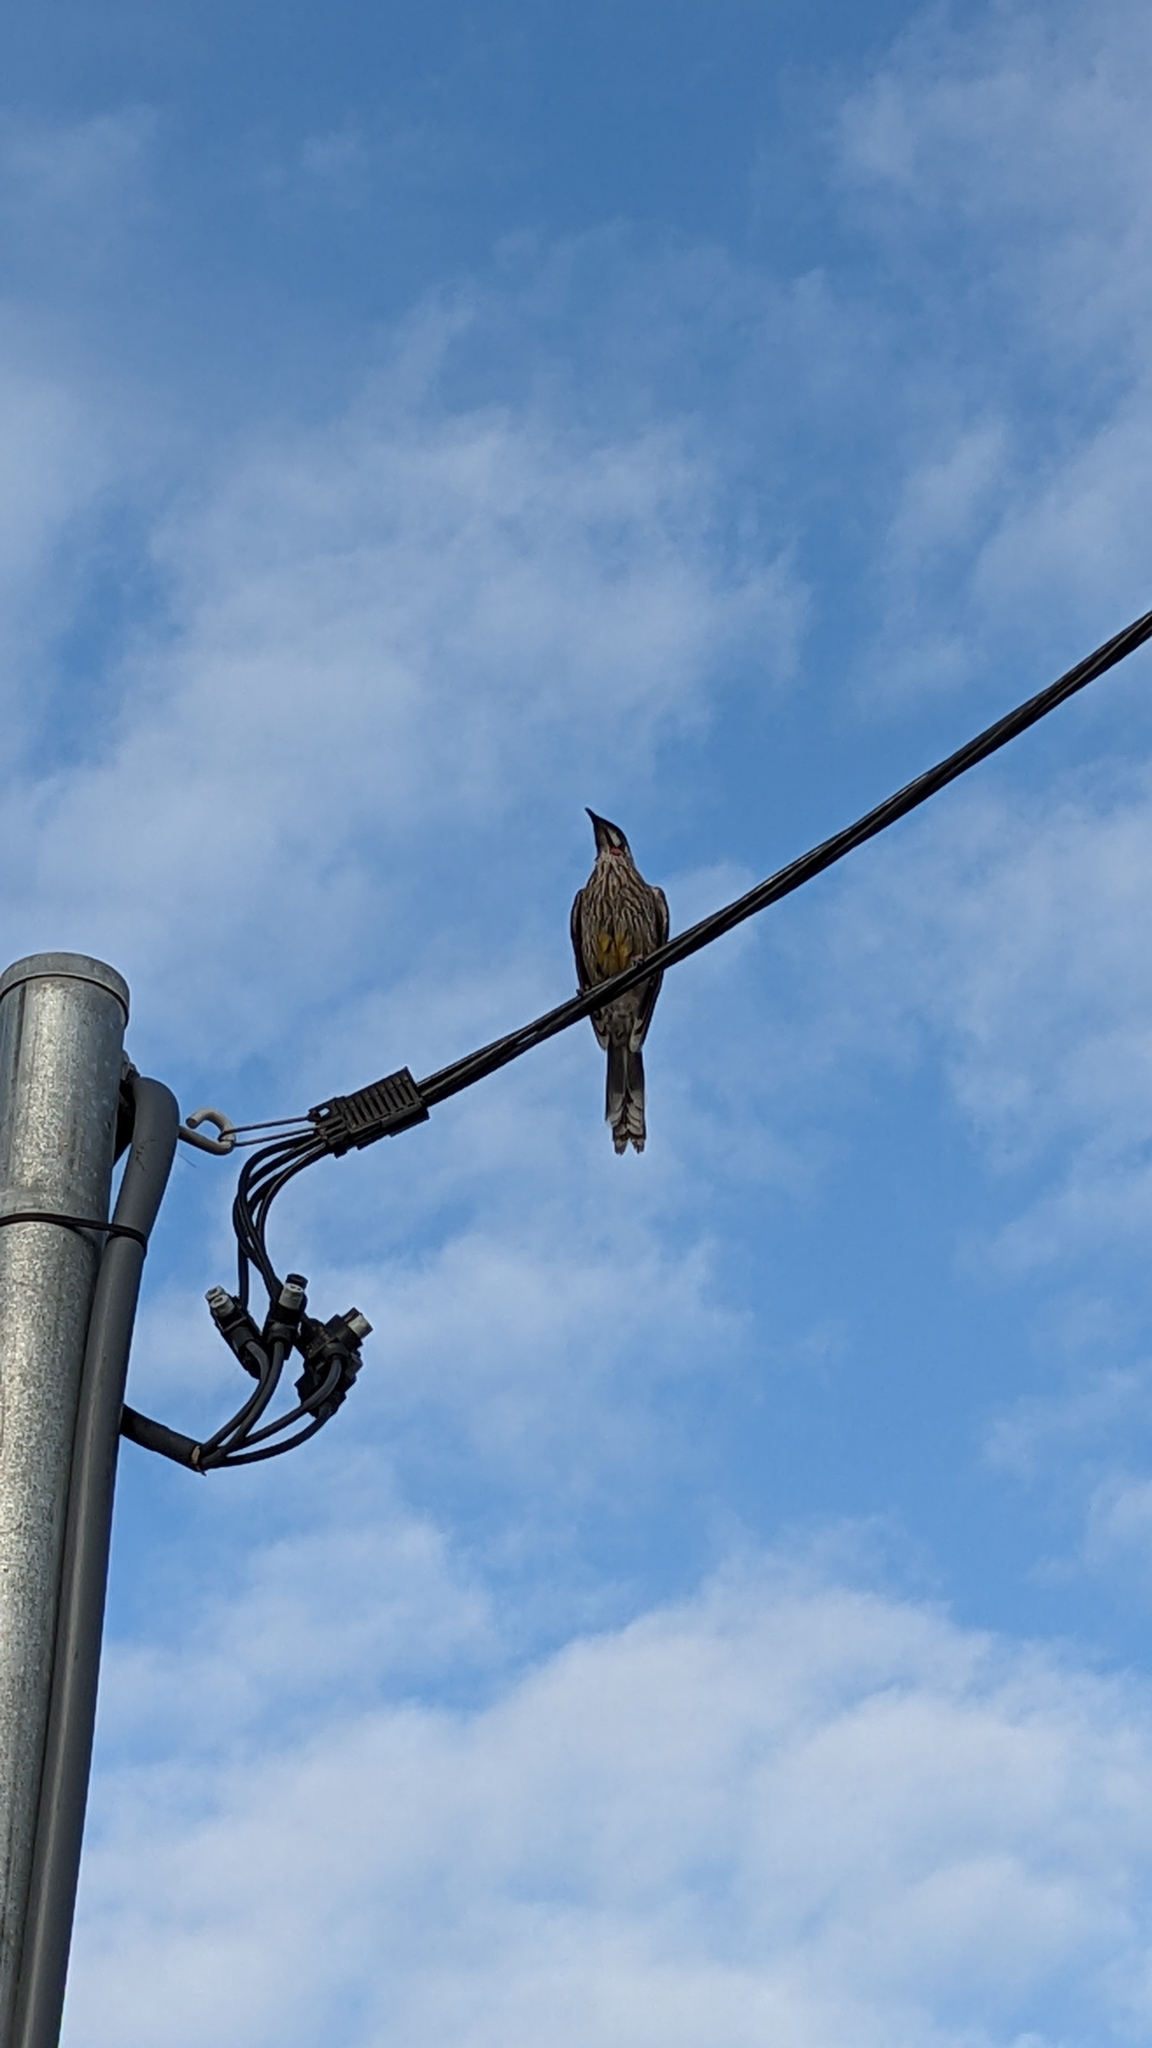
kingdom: Animalia
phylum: Chordata
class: Aves
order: Passeriformes
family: Meliphagidae
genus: Anthochaera
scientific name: Anthochaera carunculata
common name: Red wattlebird
